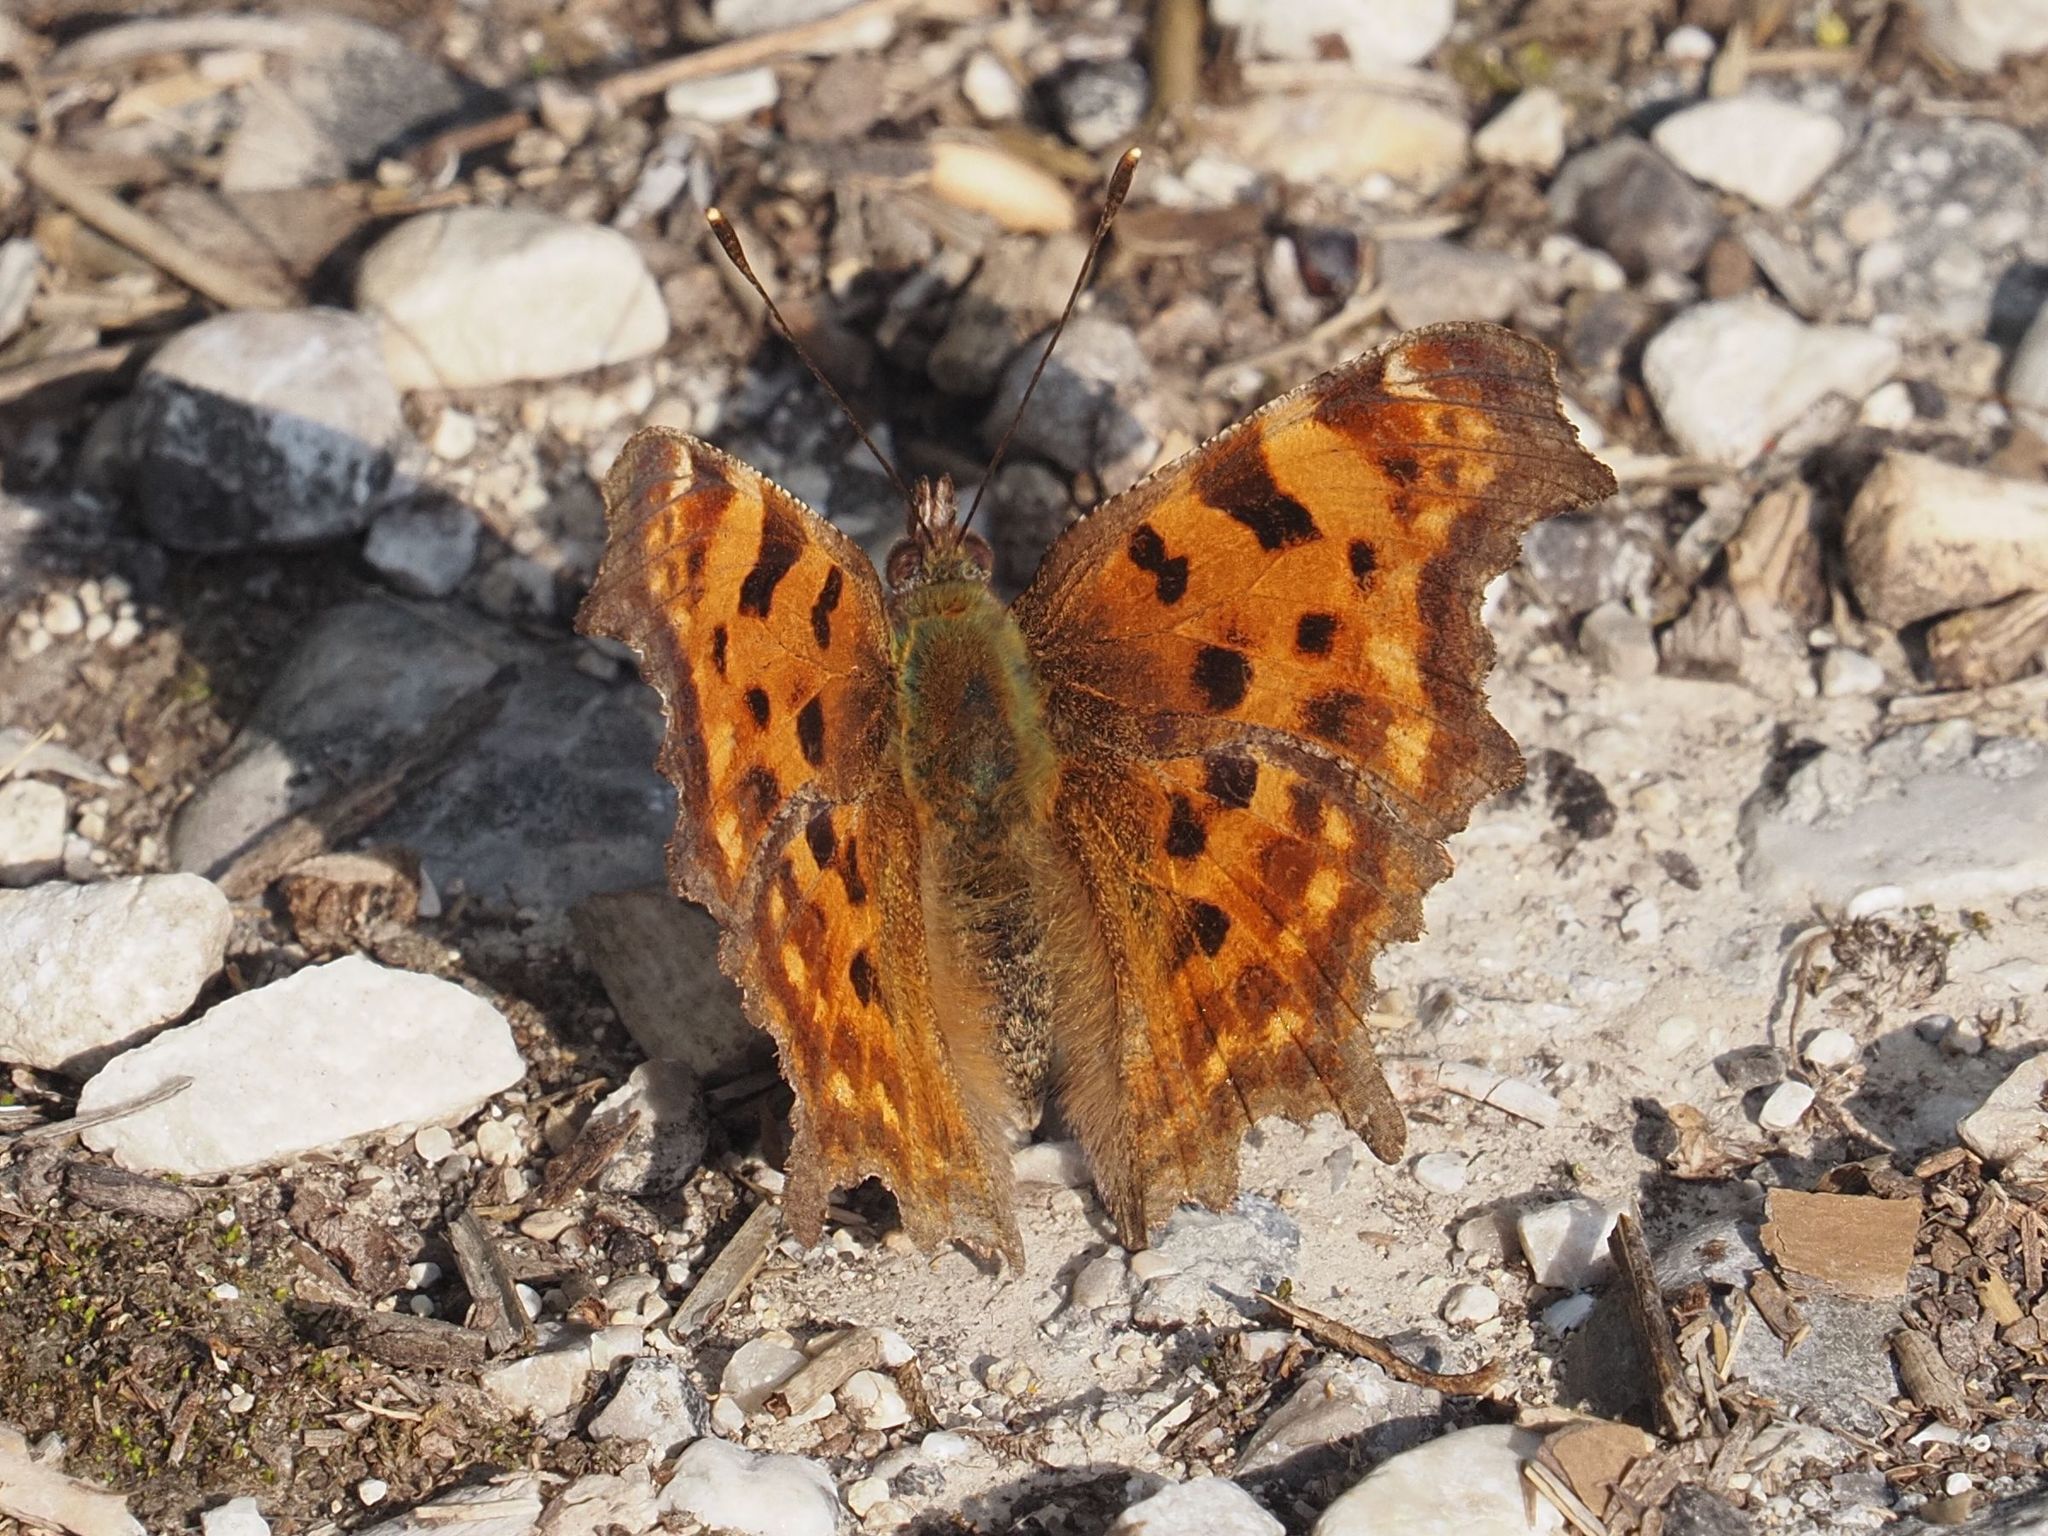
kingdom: Animalia
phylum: Arthropoda
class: Insecta
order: Lepidoptera
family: Nymphalidae
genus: Polygonia
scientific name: Polygonia c-album
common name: Comma
